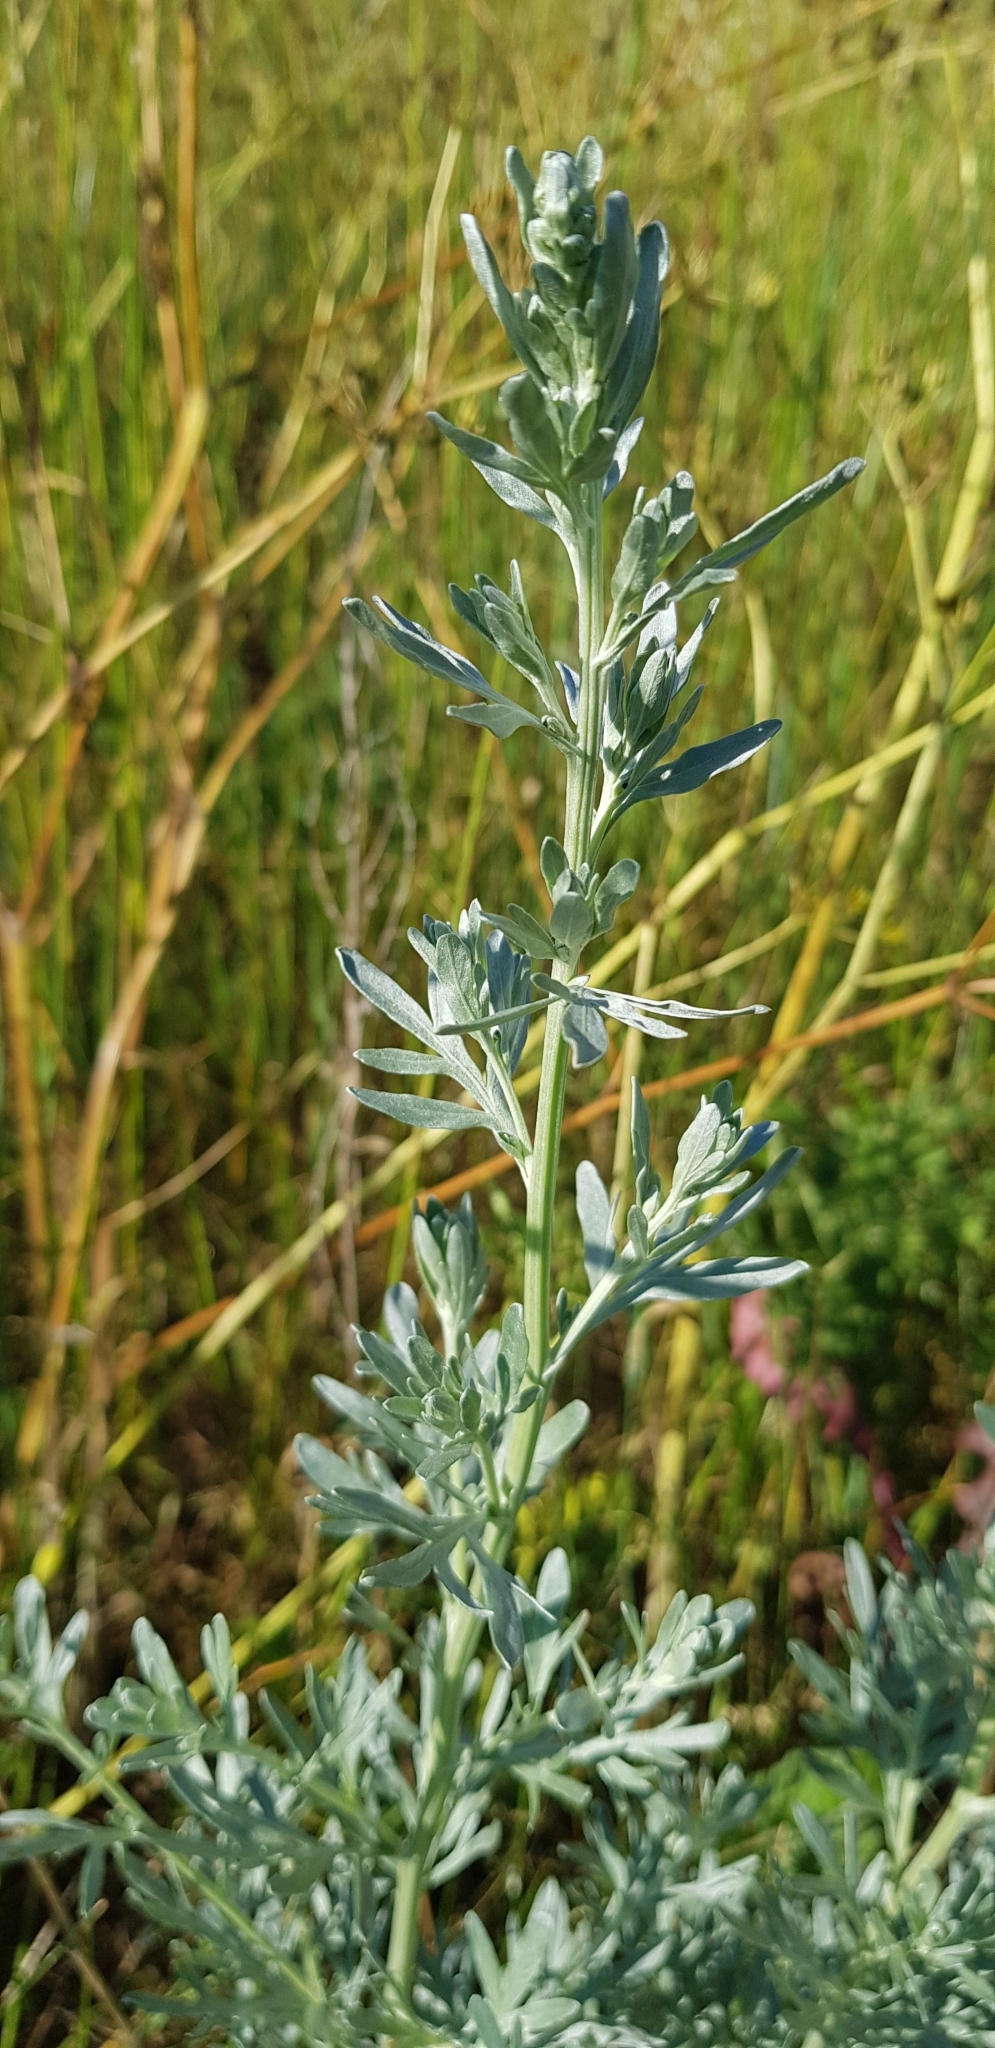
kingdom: Plantae
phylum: Tracheophyta
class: Magnoliopsida
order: Asterales
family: Asteraceae
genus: Artemisia
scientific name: Artemisia absinthium
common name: Wormwood
